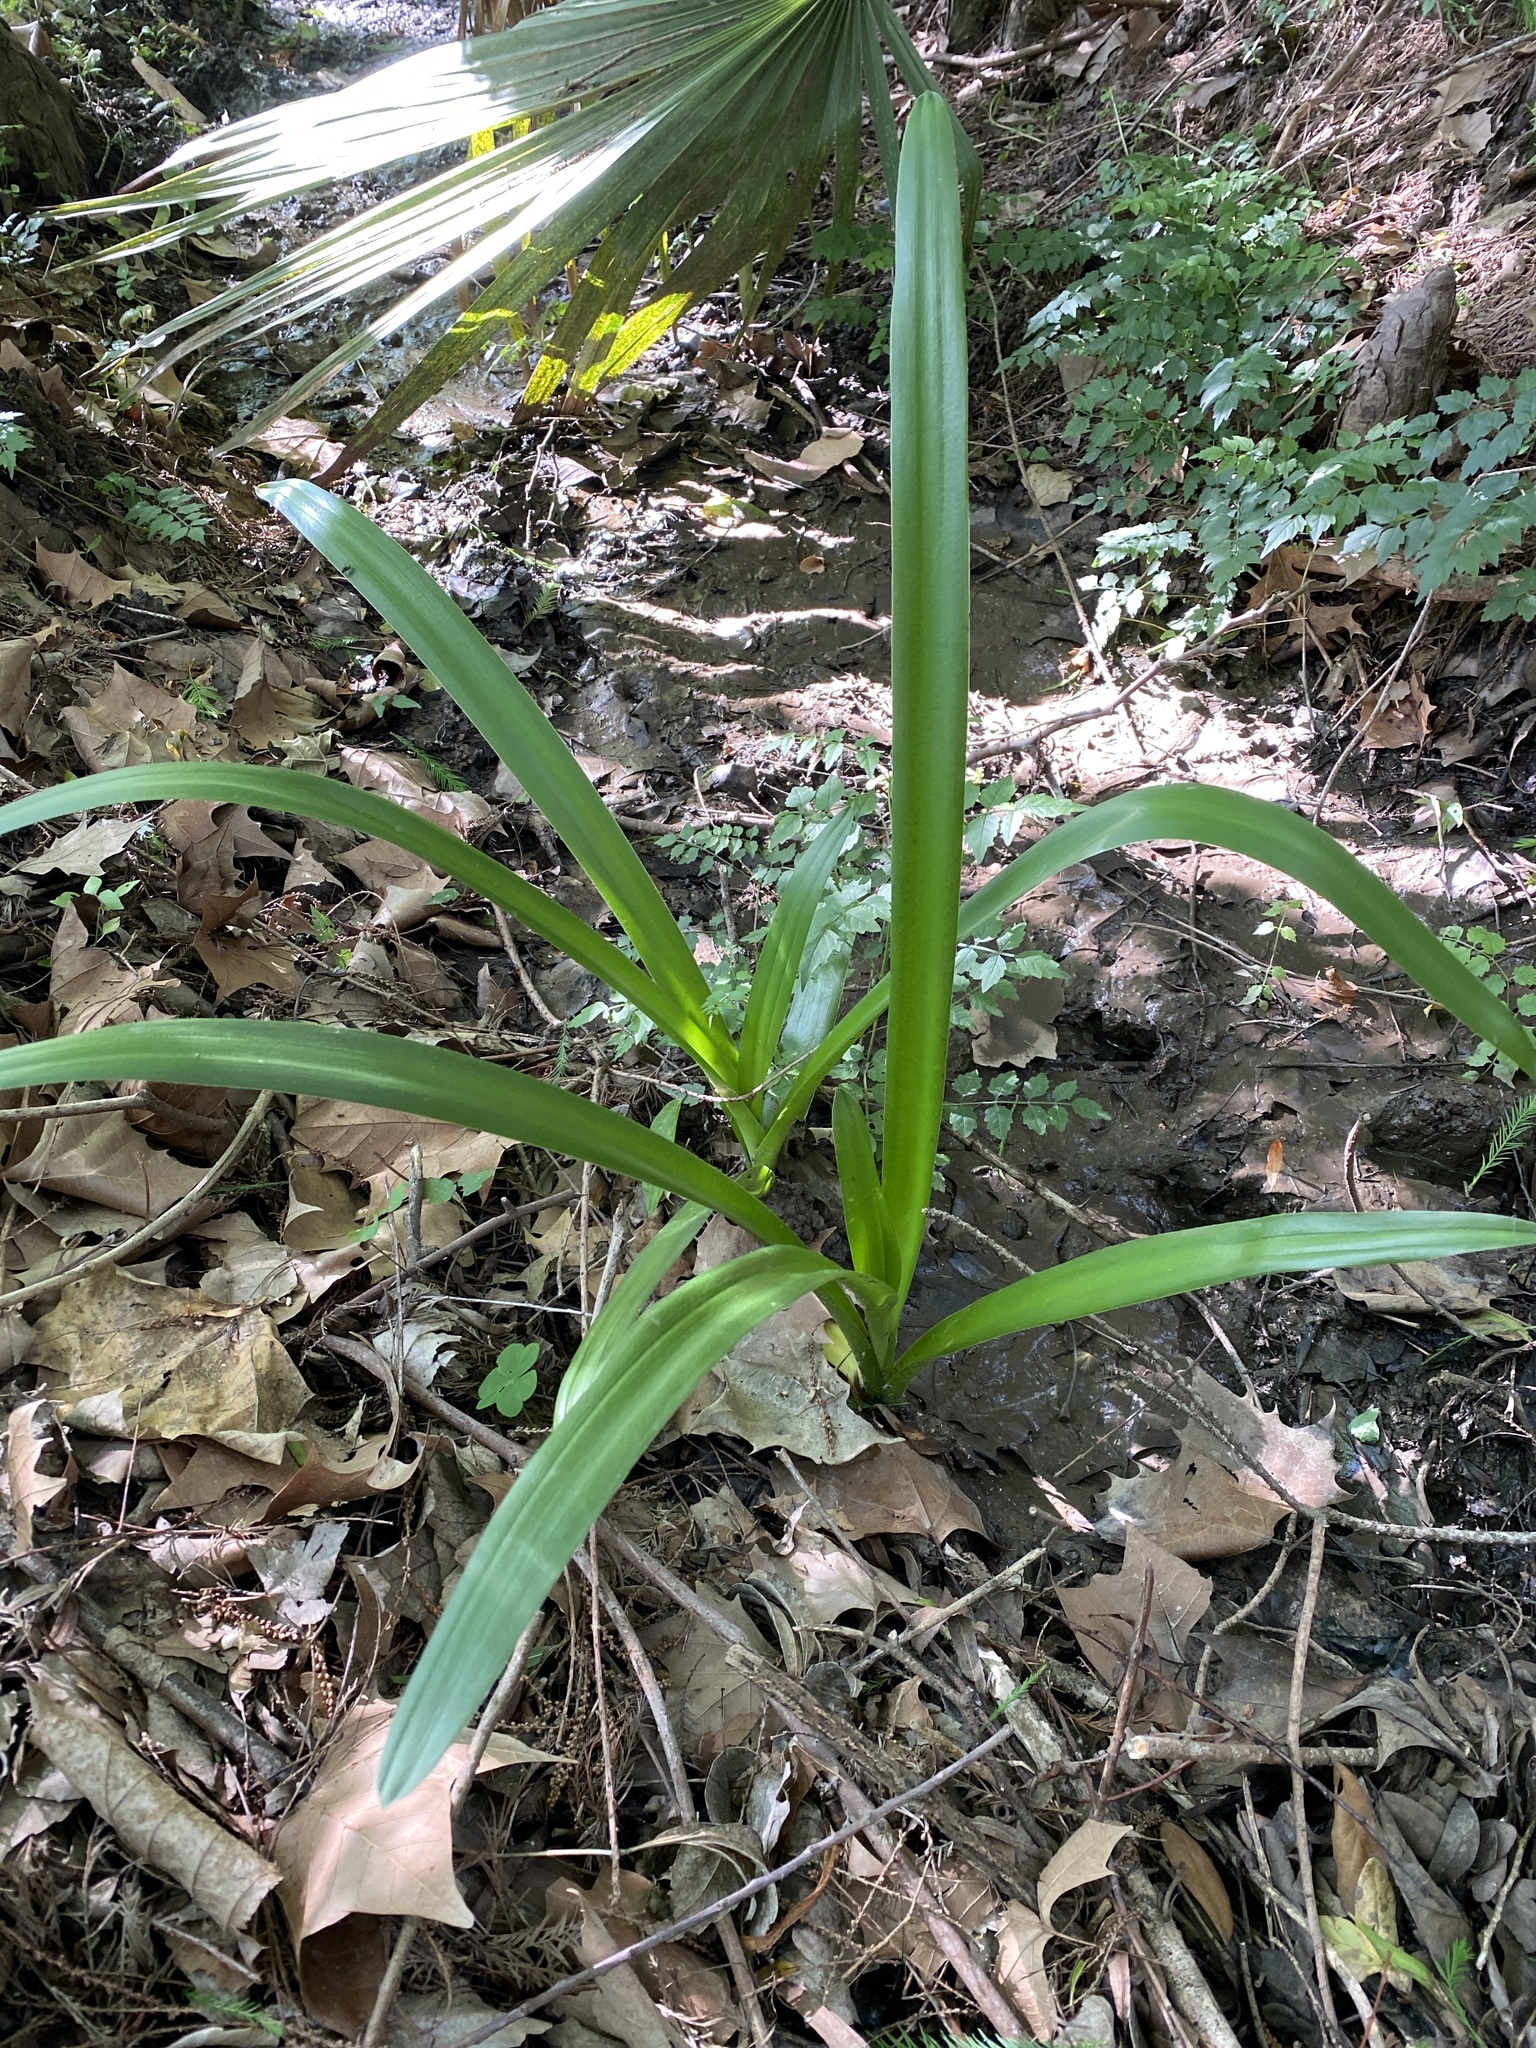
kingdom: Plantae
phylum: Tracheophyta
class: Liliopsida
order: Asparagales
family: Amaryllidaceae
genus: Crinum
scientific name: Crinum americanum
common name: Florida swamp-lily
